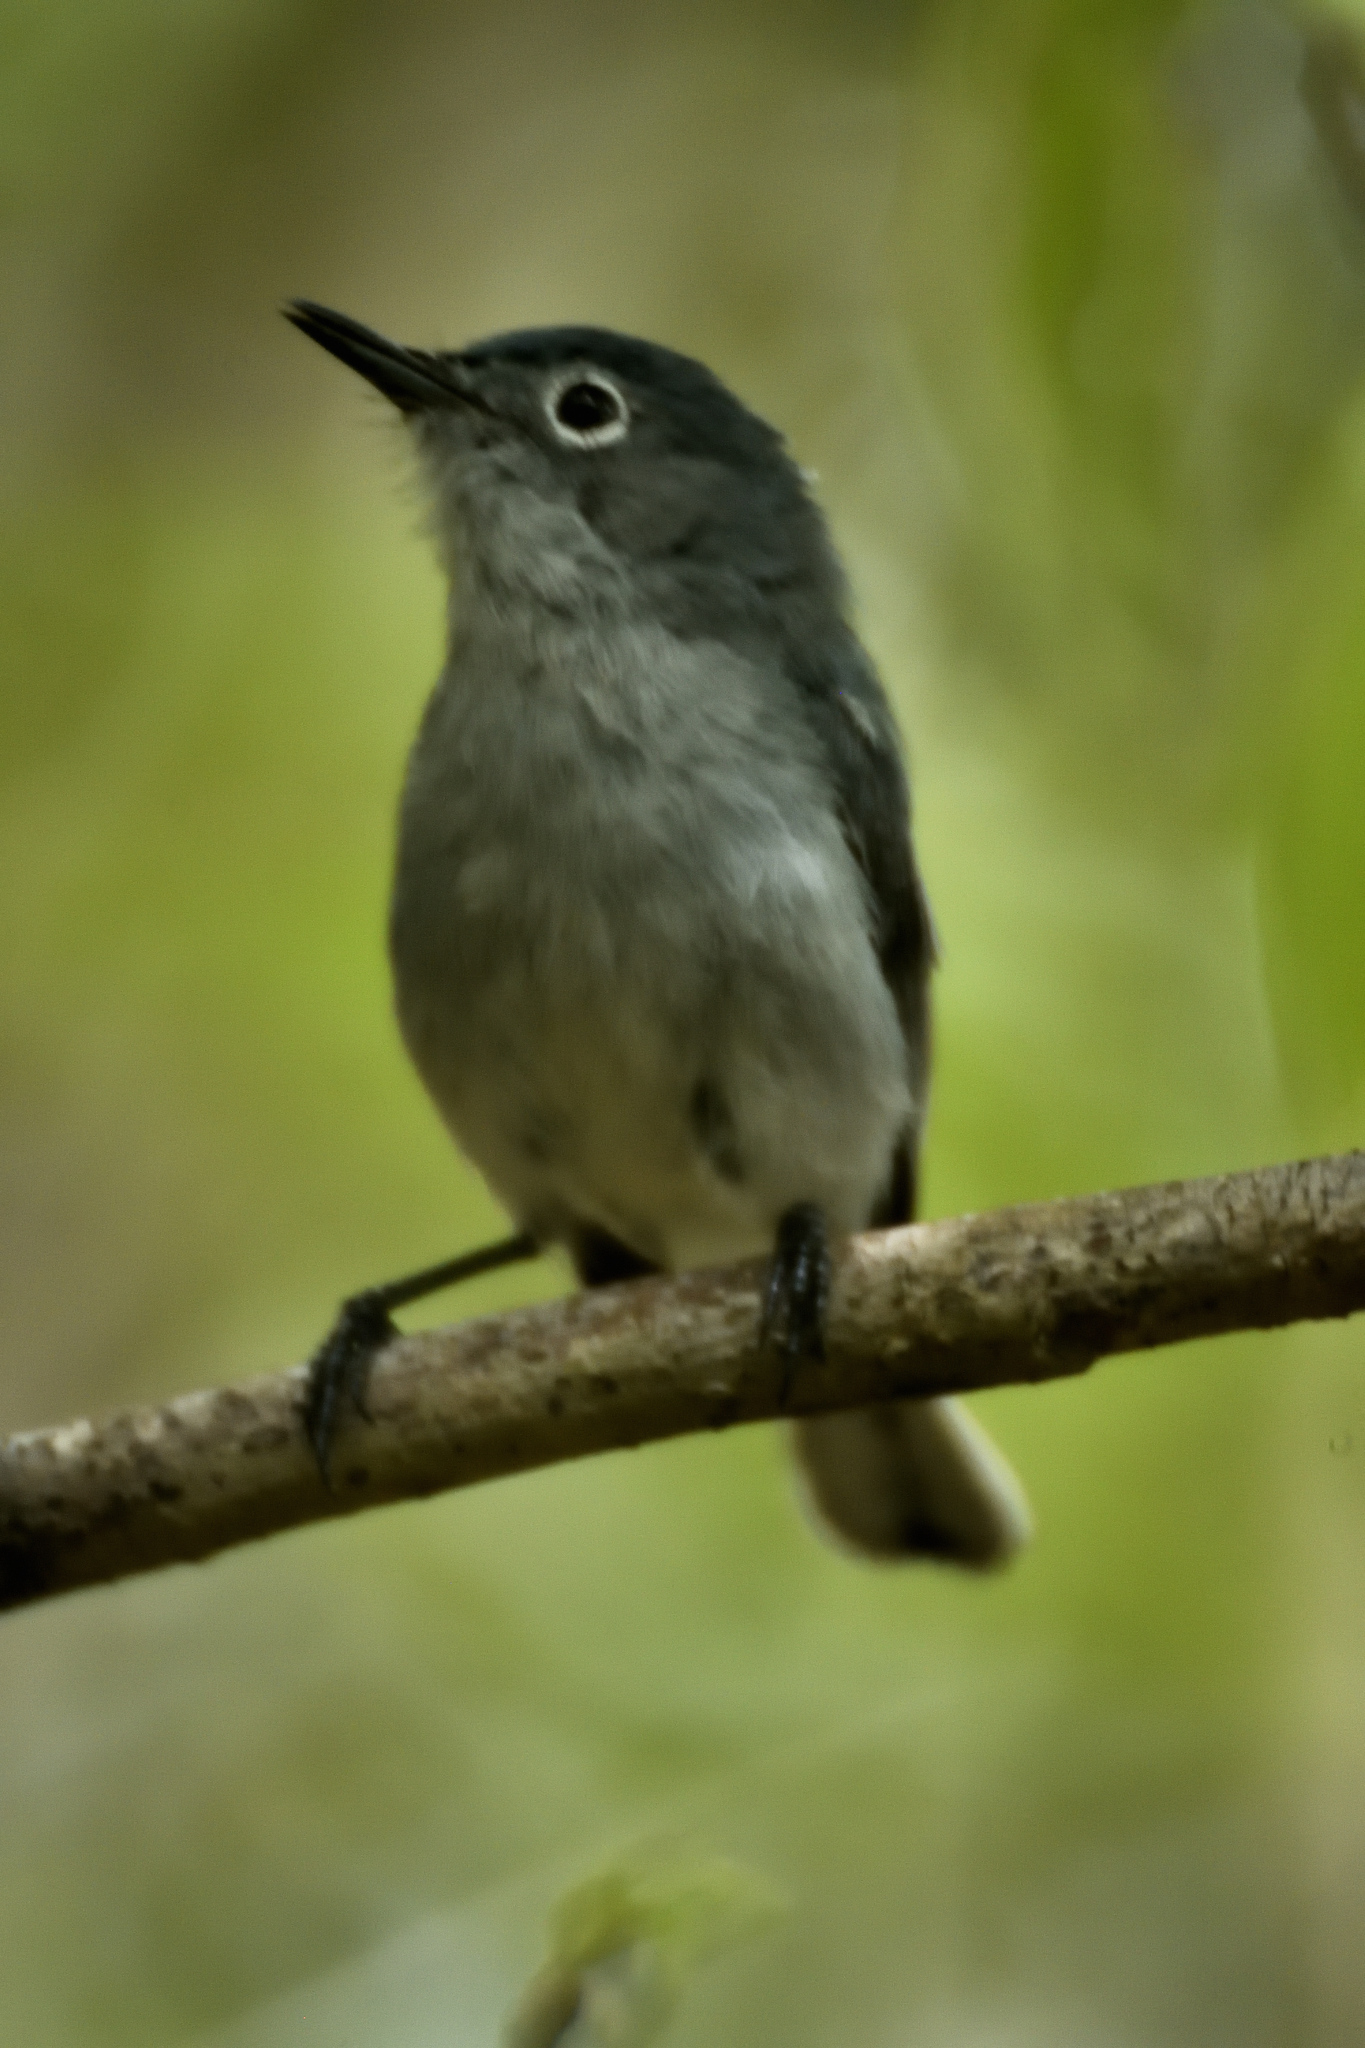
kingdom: Animalia
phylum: Chordata
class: Aves
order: Passeriformes
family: Polioptilidae
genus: Polioptila
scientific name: Polioptila caerulea
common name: Blue-gray gnatcatcher
